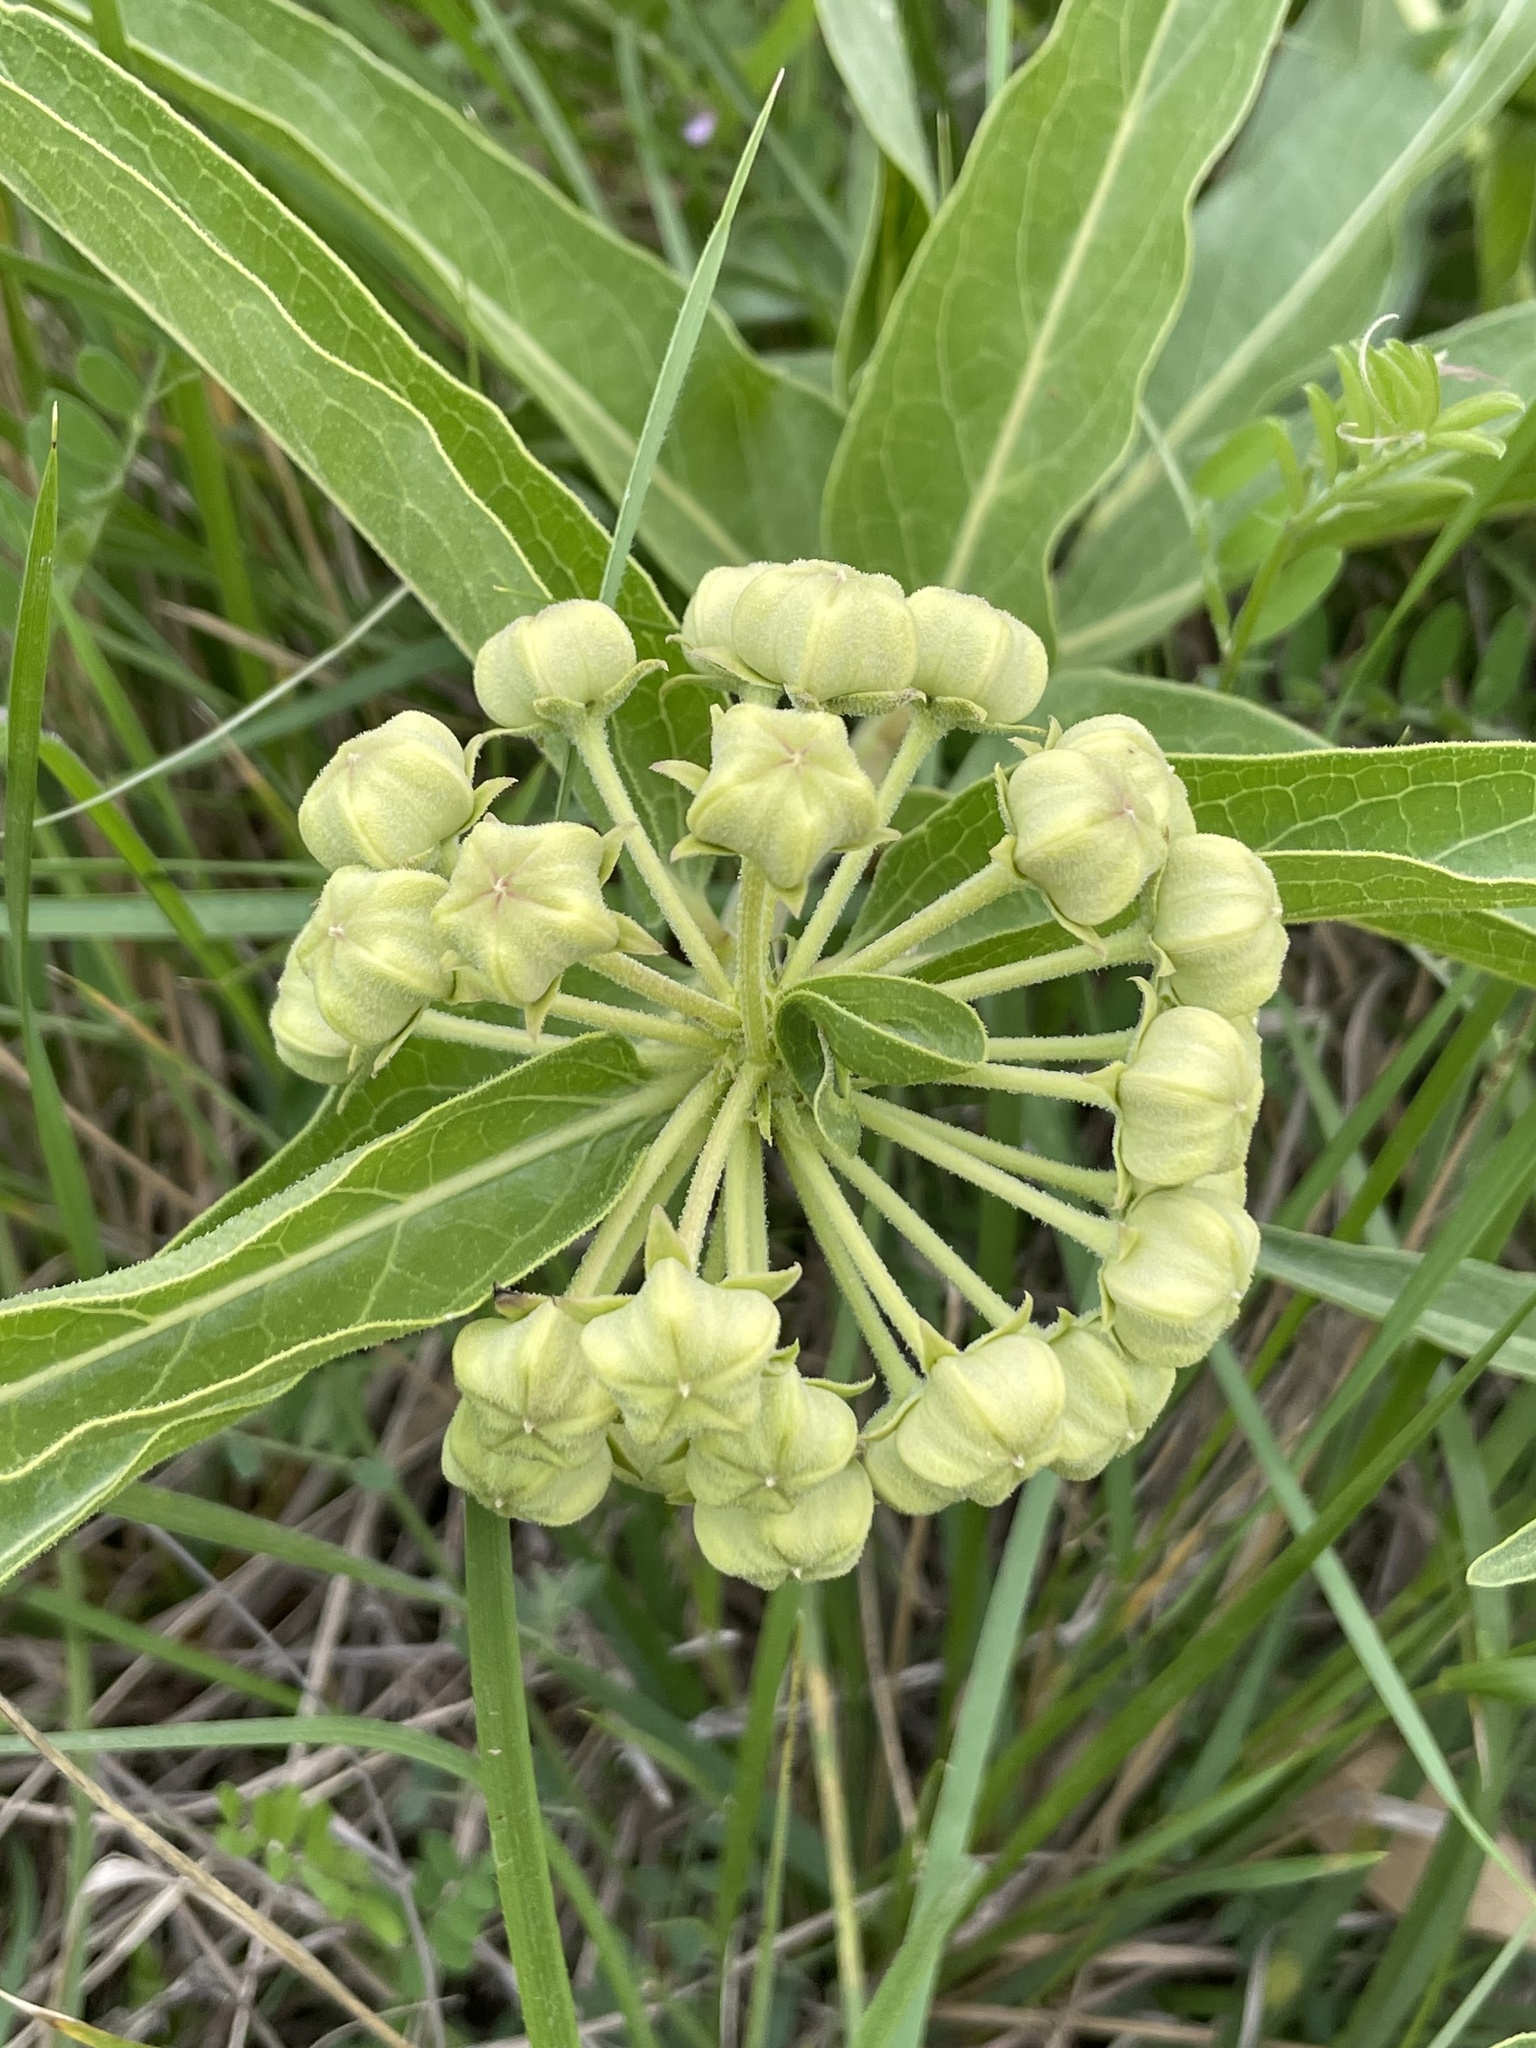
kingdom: Plantae
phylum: Tracheophyta
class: Magnoliopsida
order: Gentianales
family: Apocynaceae
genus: Asclepias
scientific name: Asclepias asperula
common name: Antelope horns
